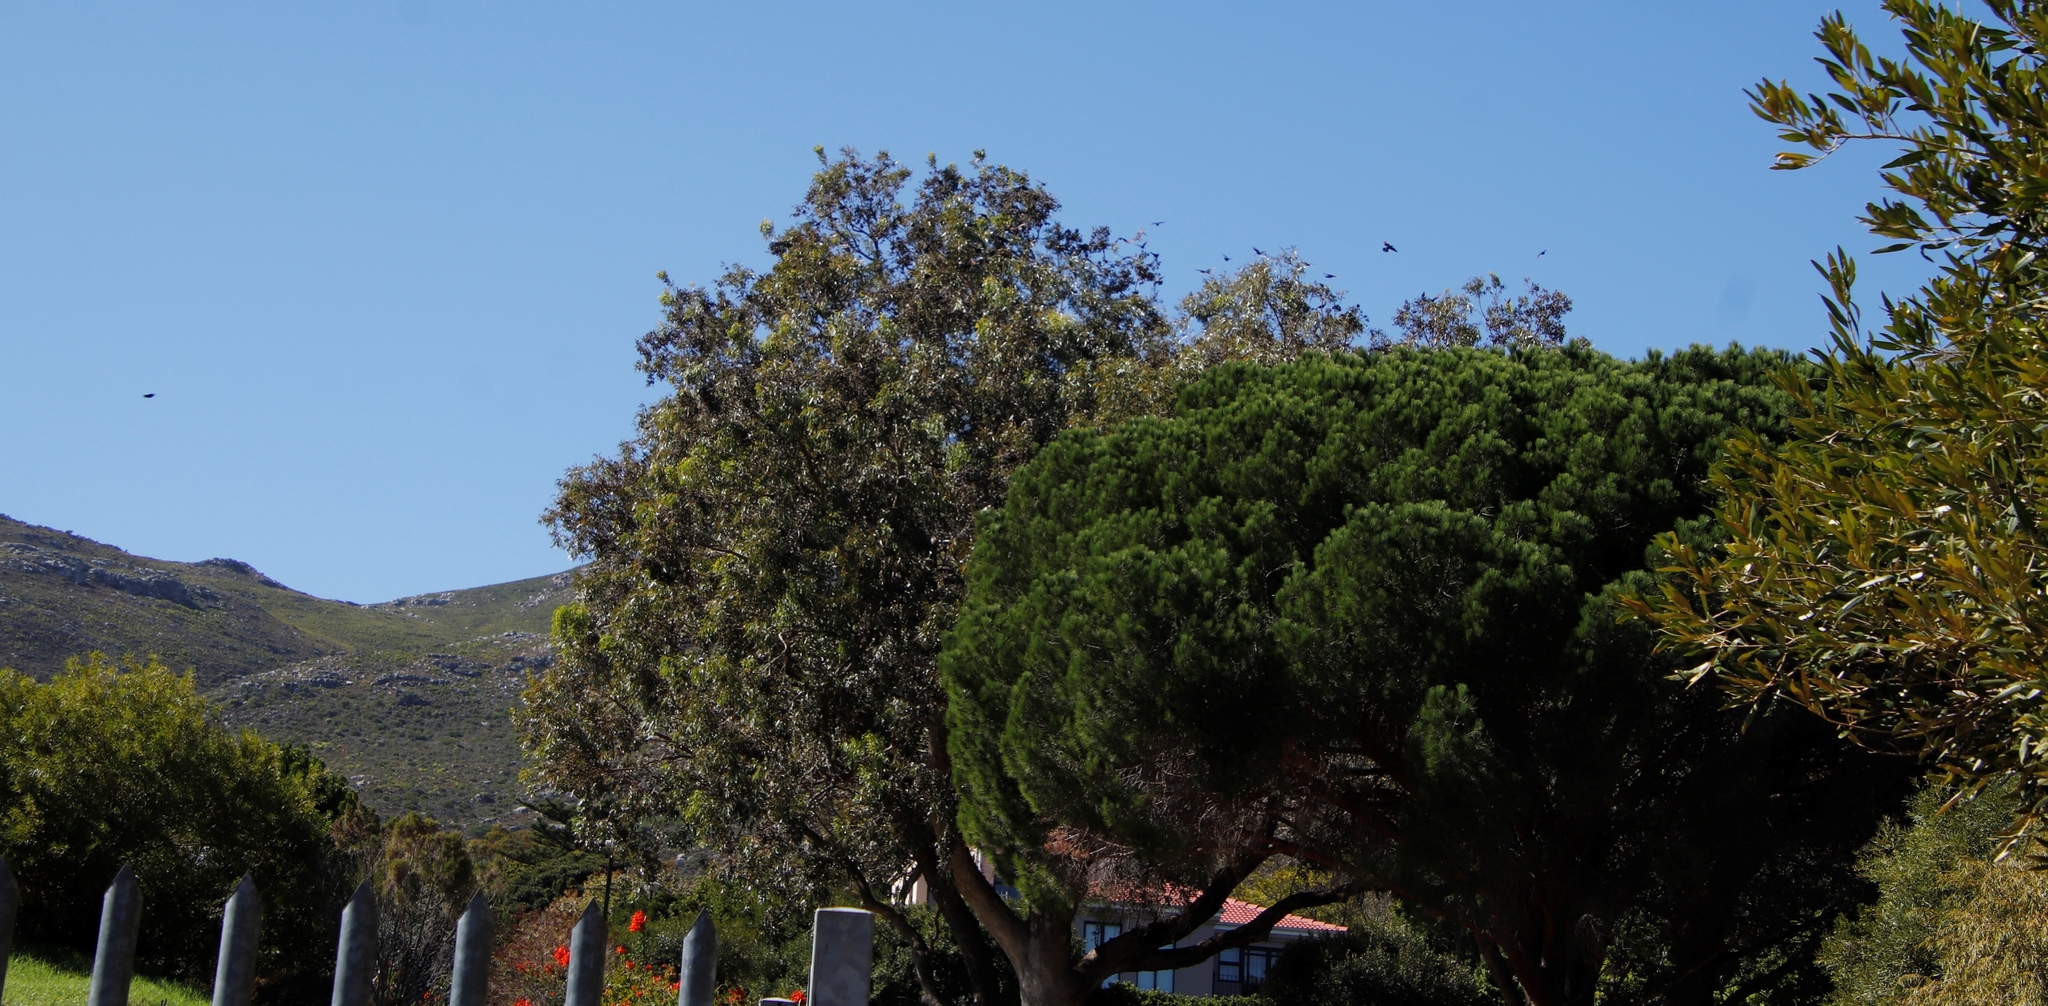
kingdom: Animalia
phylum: Chordata
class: Aves
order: Passeriformes
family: Sturnidae
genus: Onychognathus
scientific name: Onychognathus morio
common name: Red-winged starling
